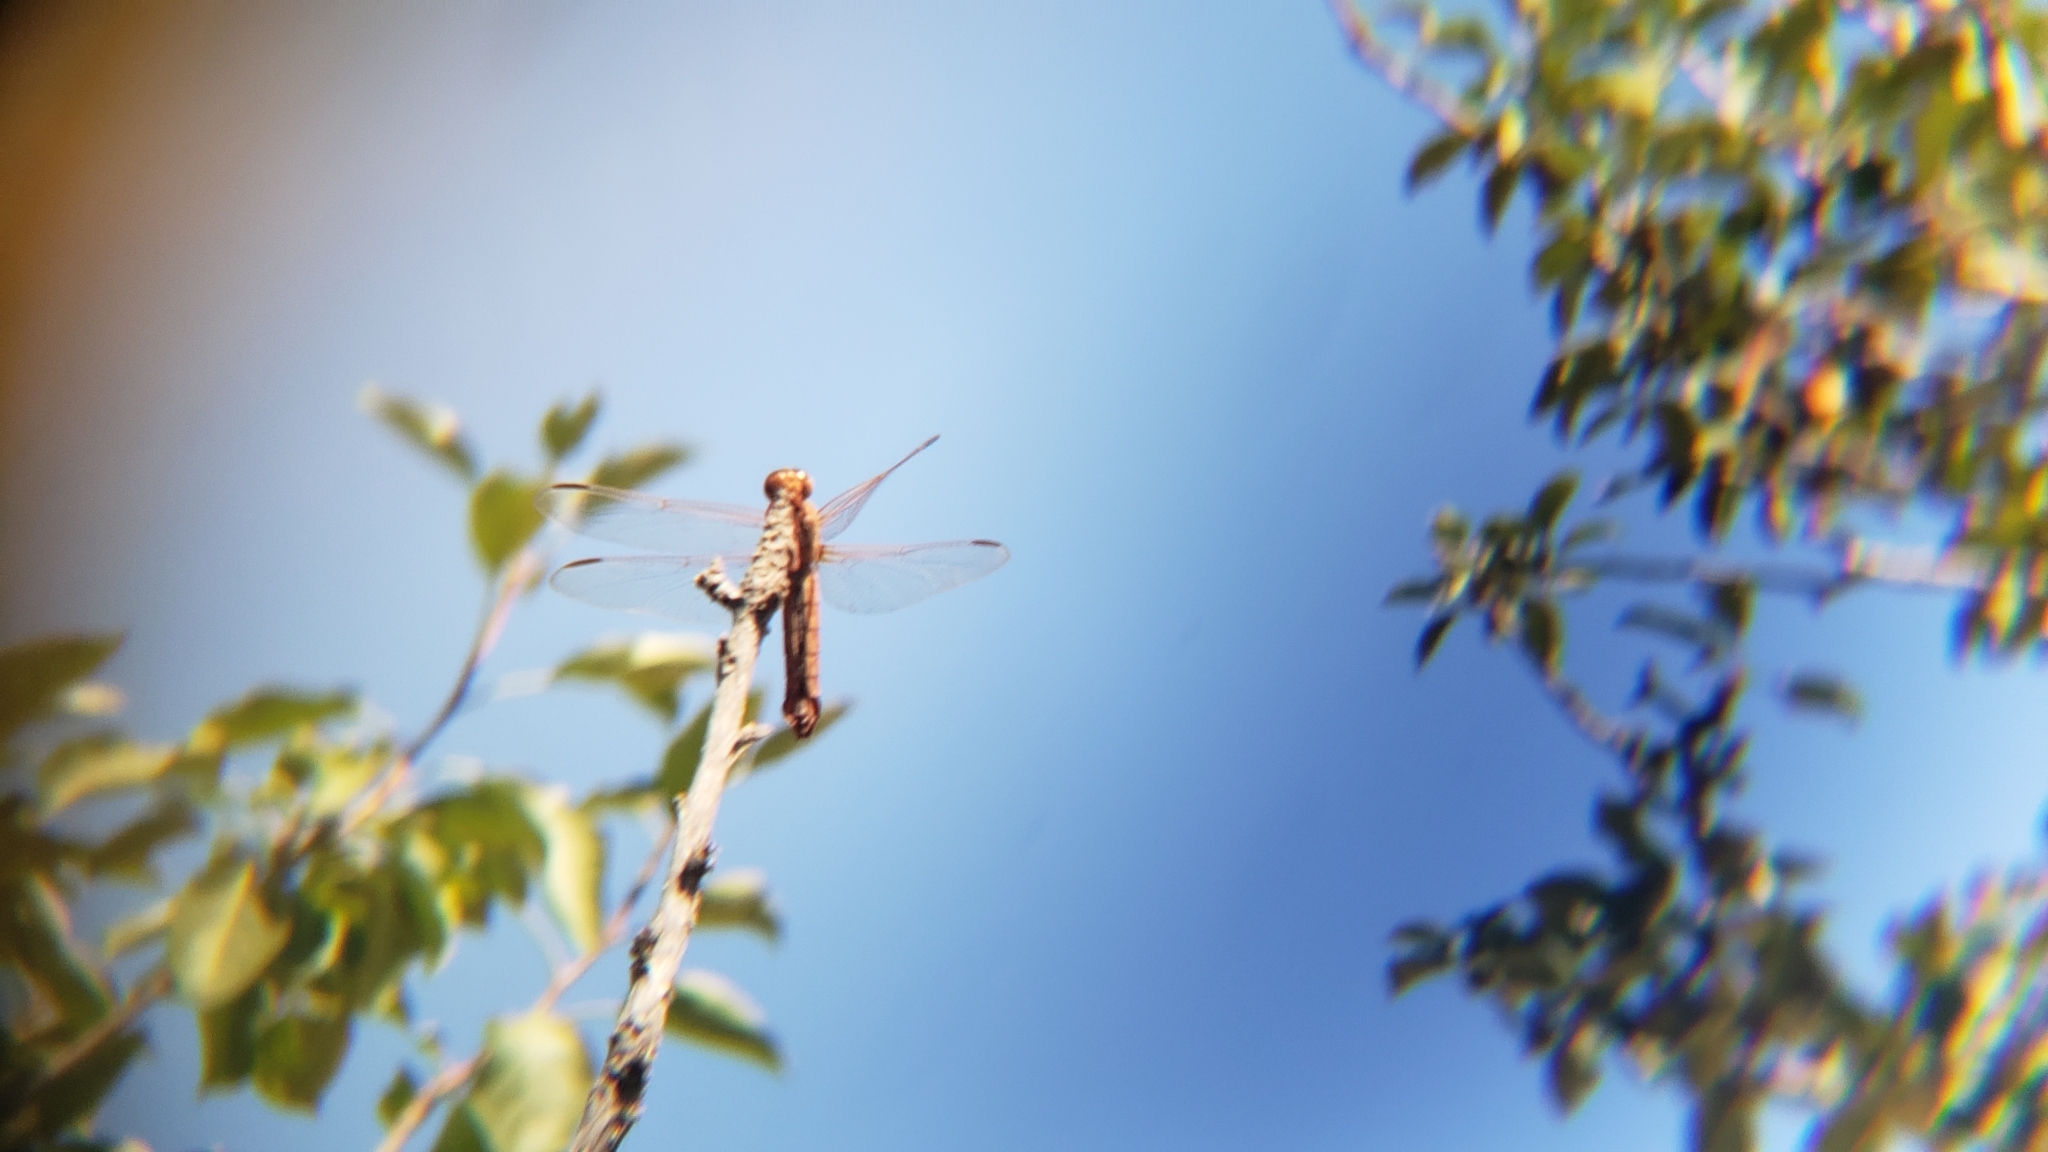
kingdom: Animalia
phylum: Arthropoda
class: Insecta
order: Odonata
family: Libellulidae
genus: Libellula
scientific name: Libellula croceipennis
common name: Neon skimmer
